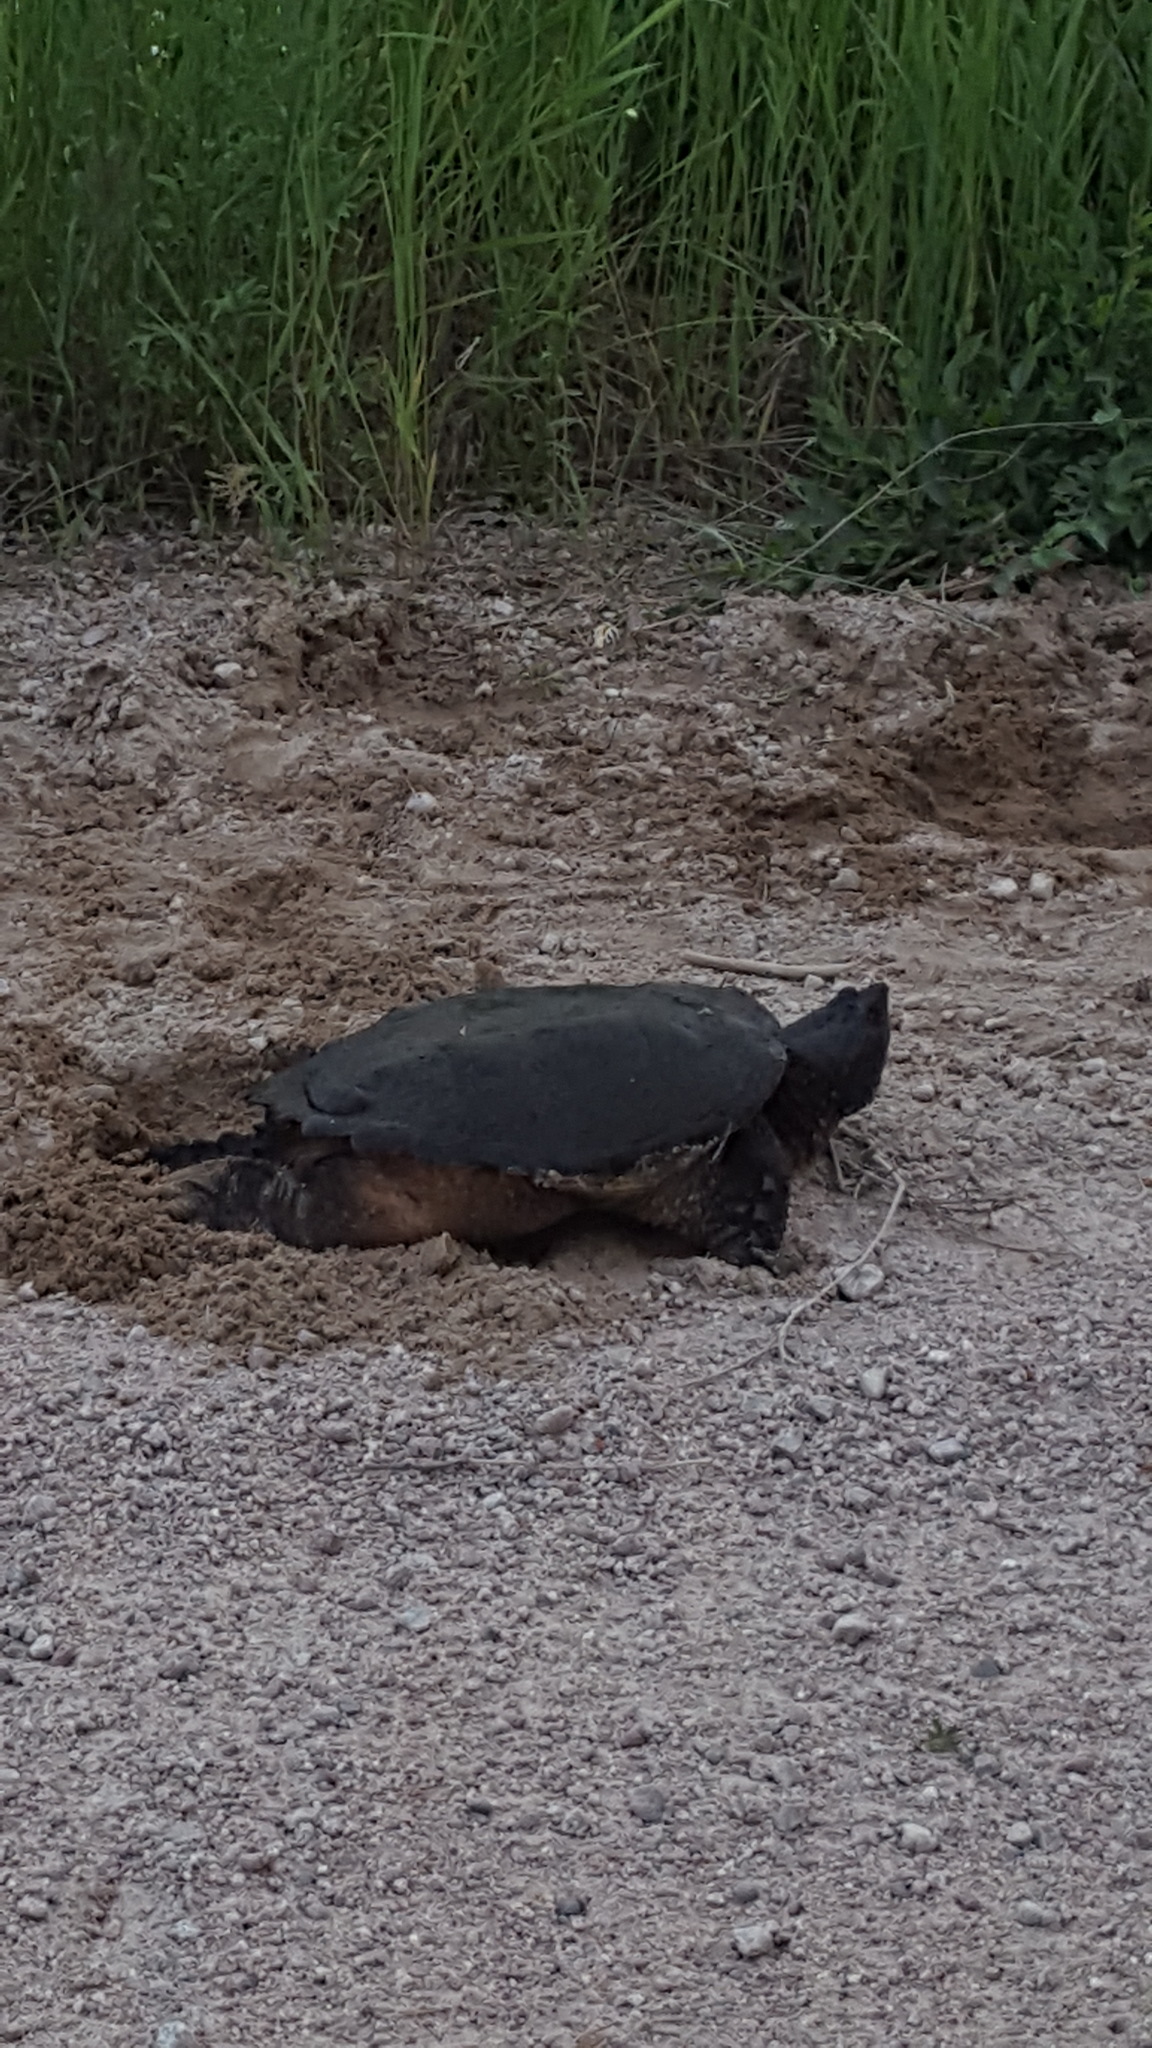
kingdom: Animalia
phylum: Chordata
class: Testudines
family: Chelydridae
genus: Chelydra
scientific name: Chelydra serpentina
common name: Common snapping turtle
